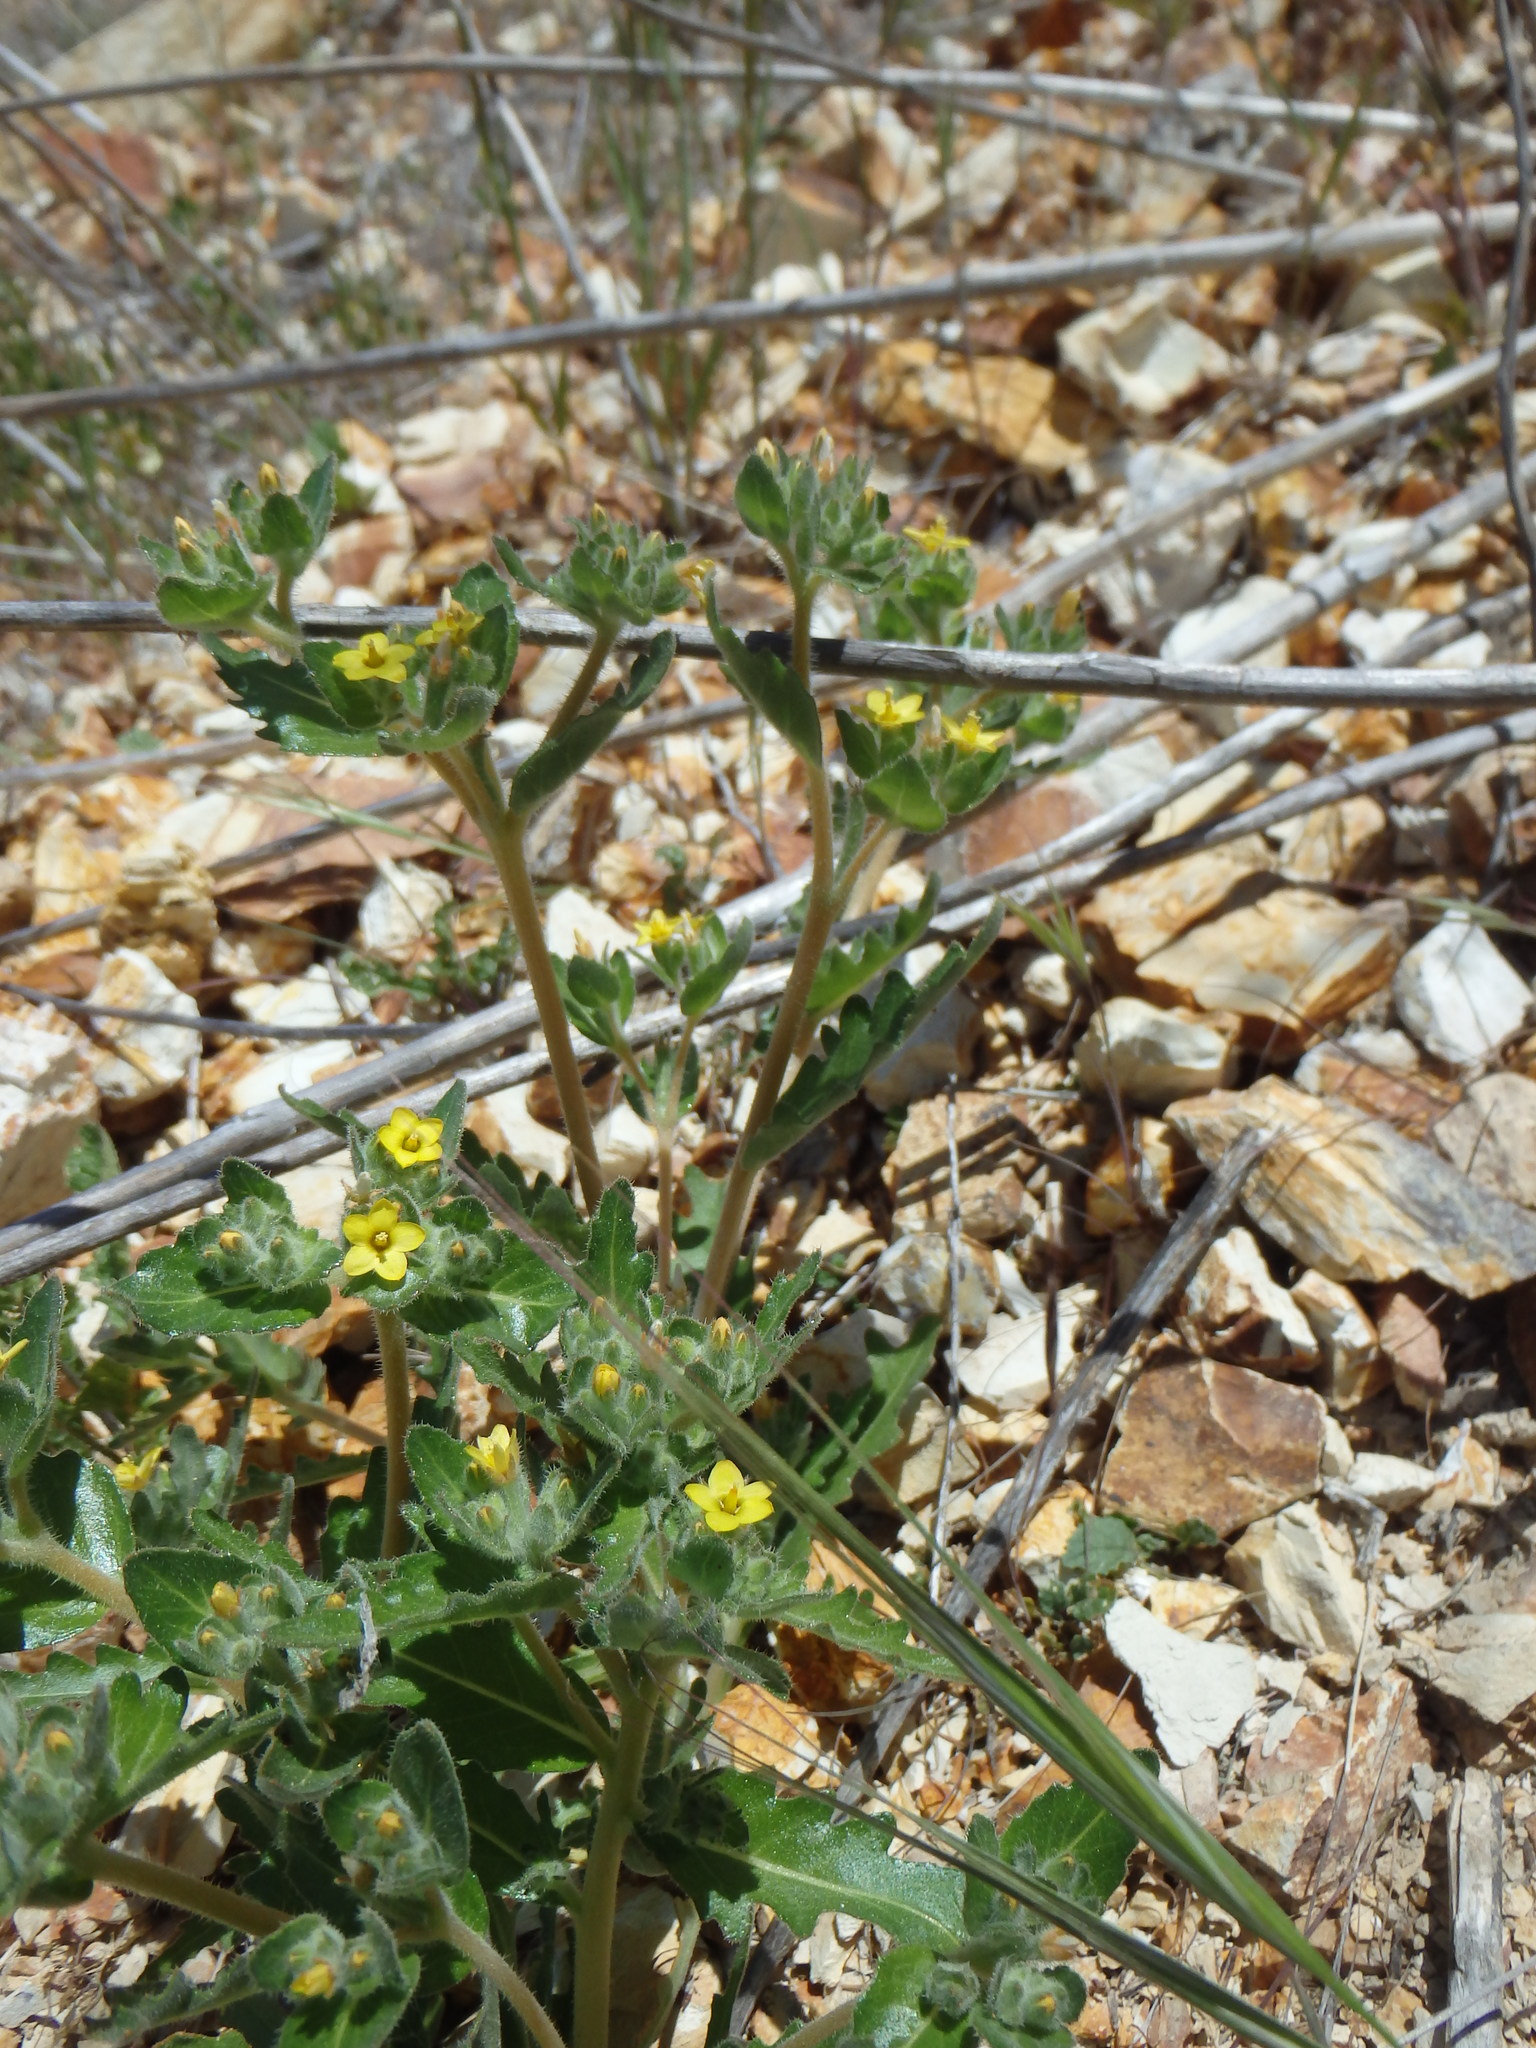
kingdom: Plantae
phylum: Tracheophyta
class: Magnoliopsida
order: Cornales
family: Loasaceae
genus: Mentzelia
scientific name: Mentzelia micrantha
